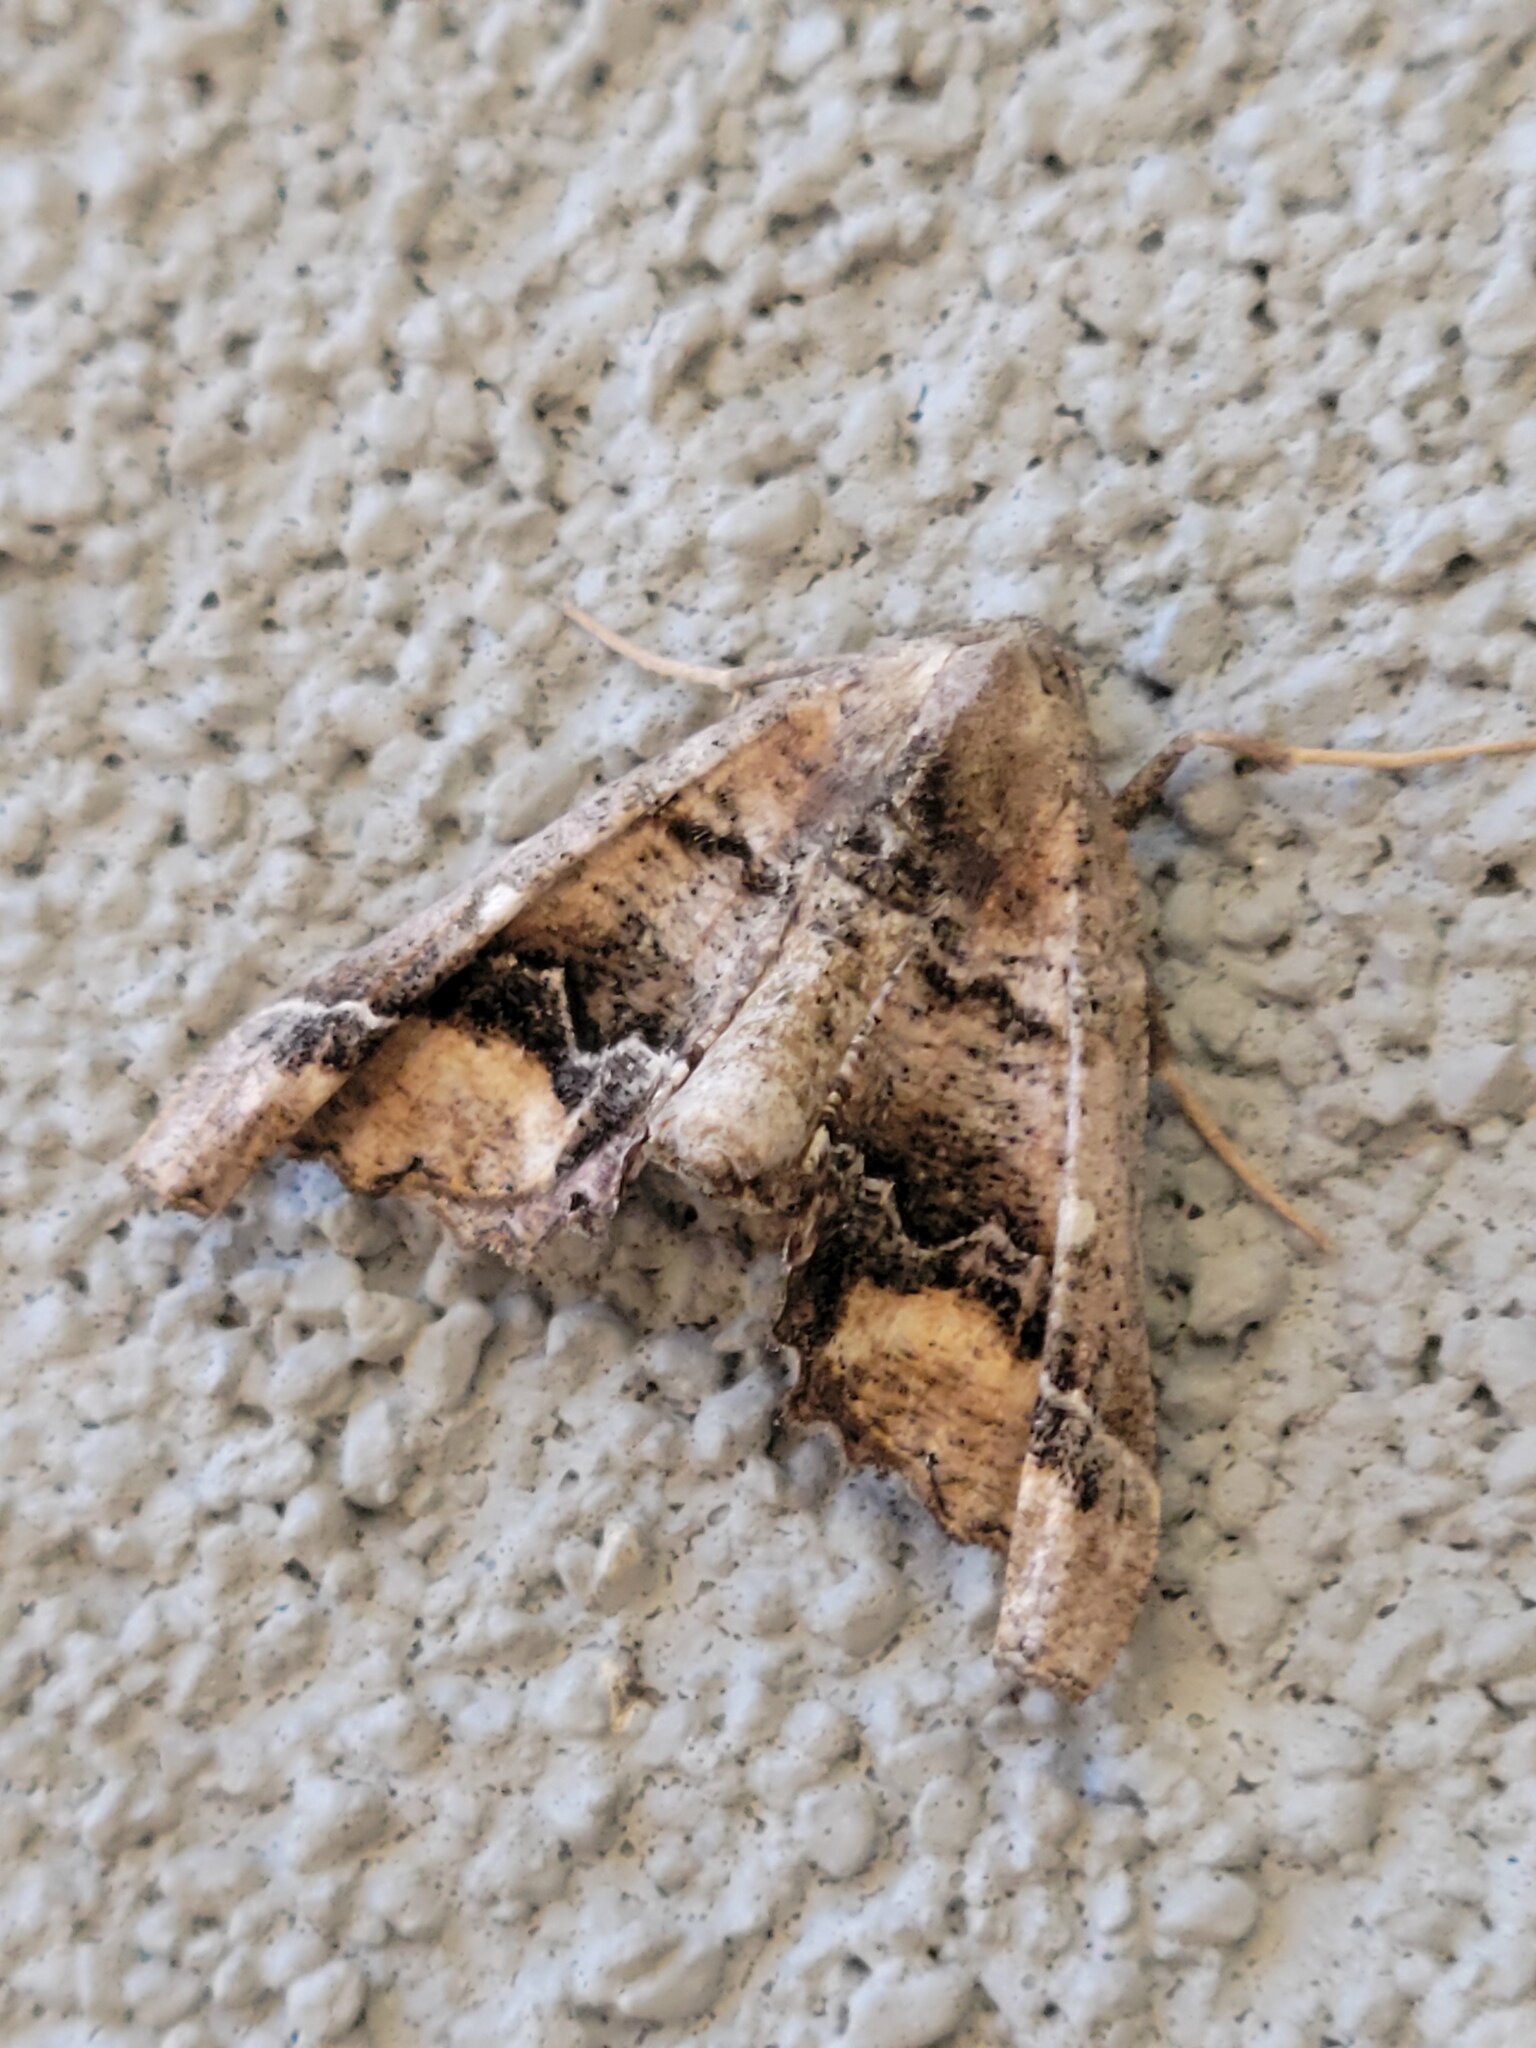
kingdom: Animalia
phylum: Arthropoda
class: Insecta
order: Lepidoptera
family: Geometridae
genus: Pero
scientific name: Pero meskaria
